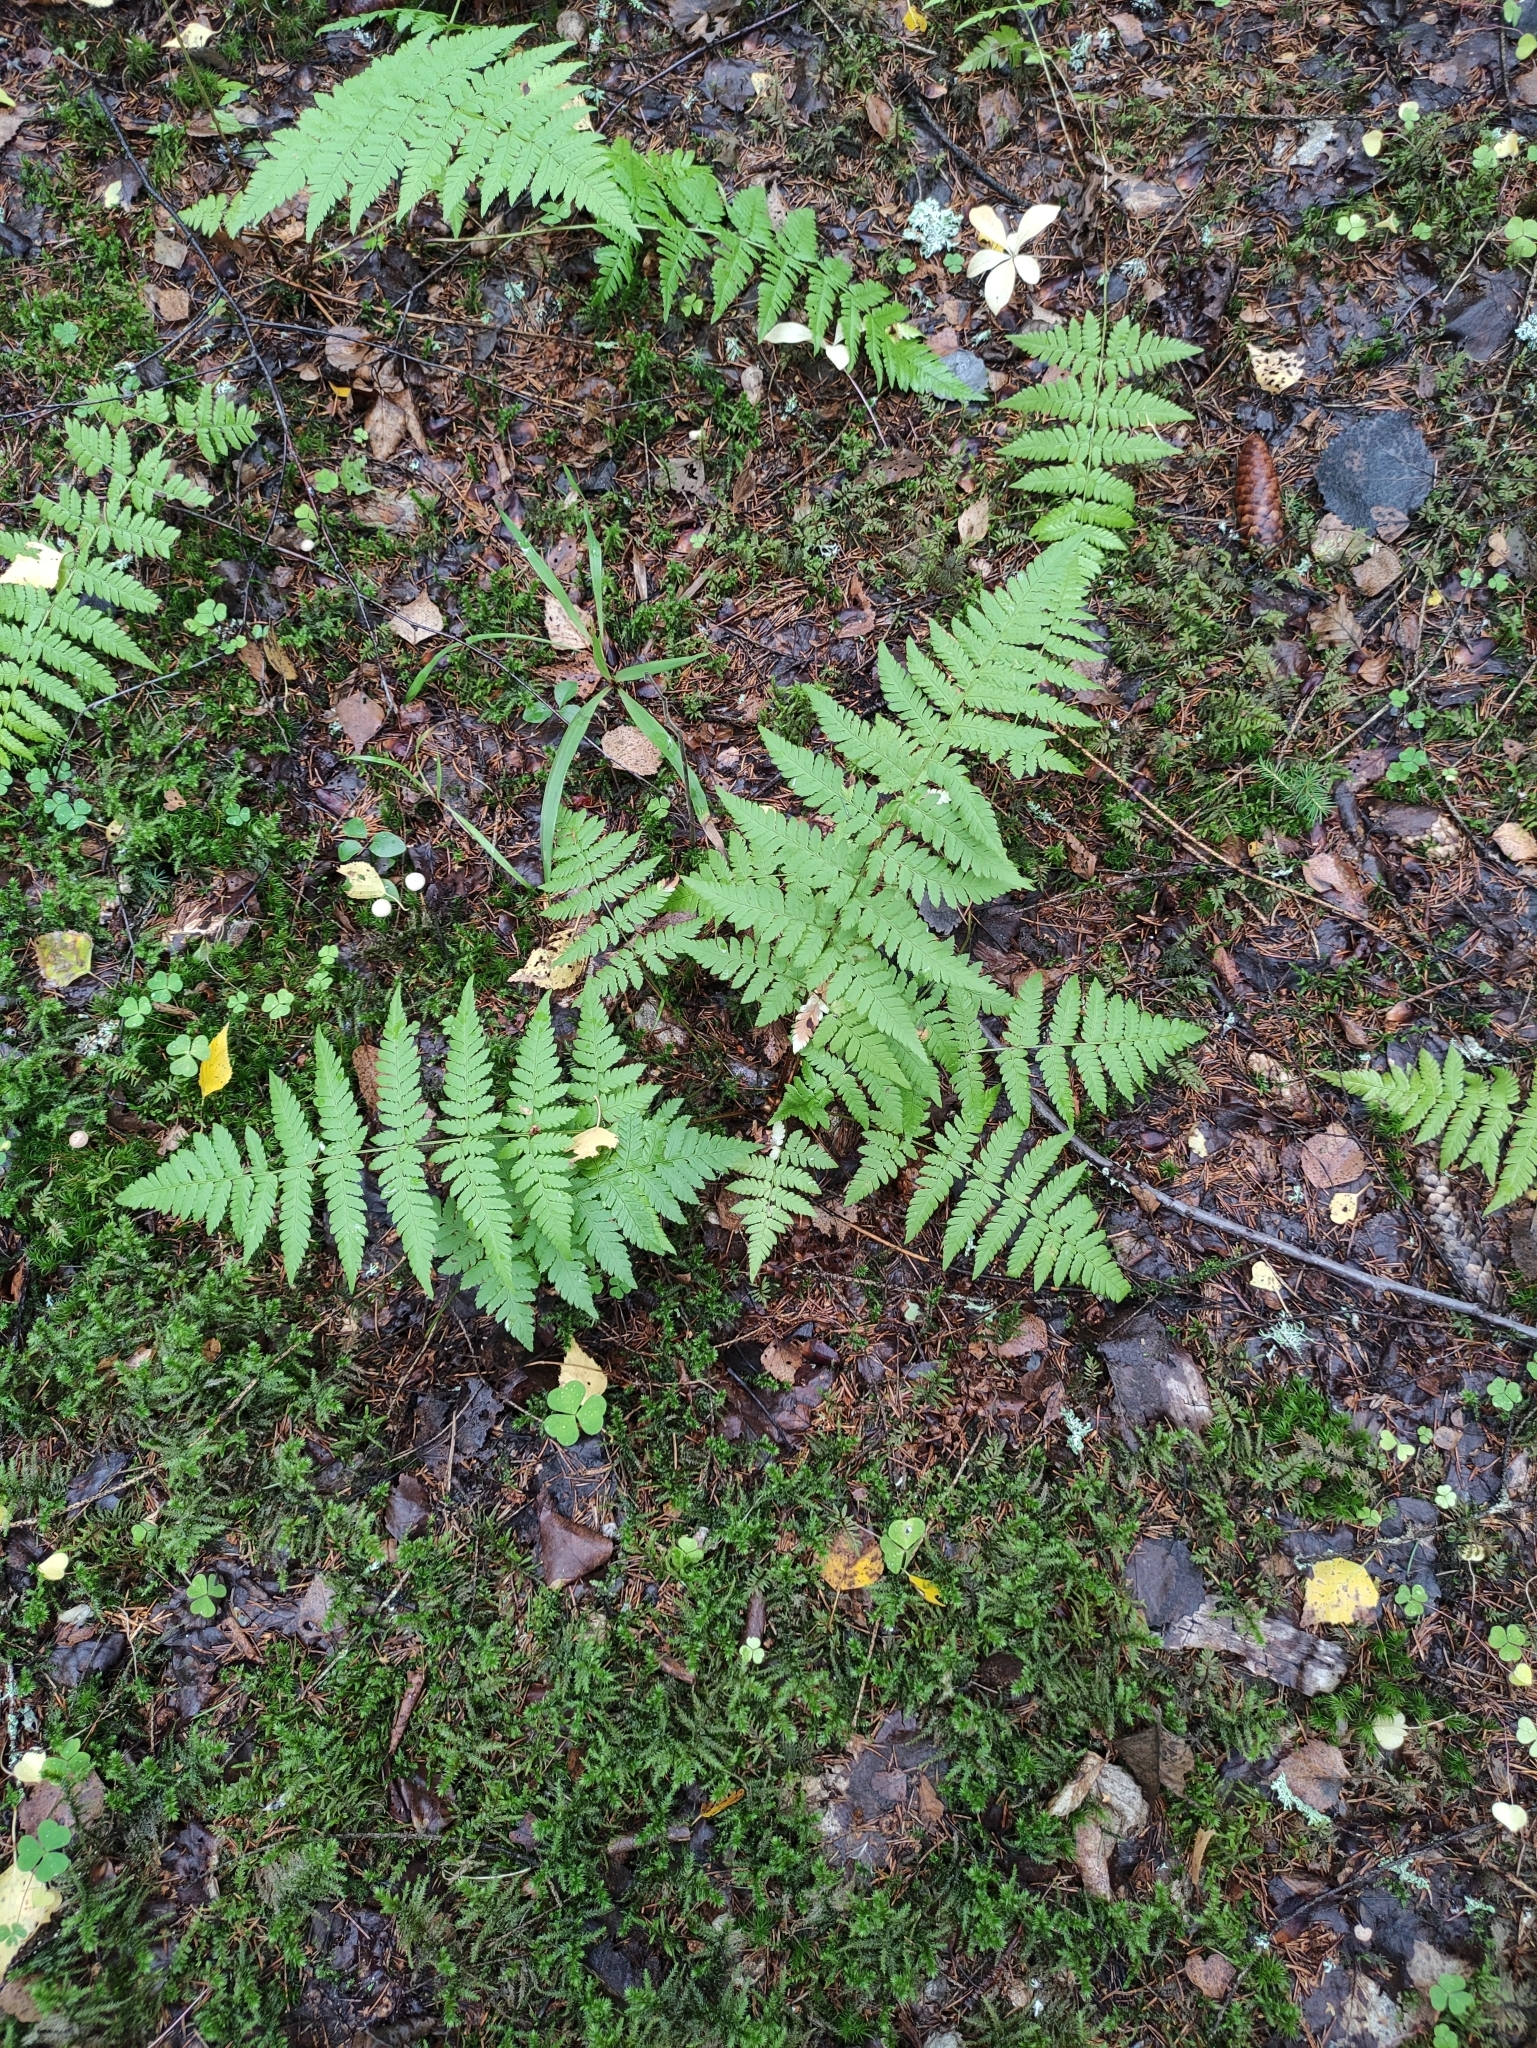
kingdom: Plantae
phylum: Tracheophyta
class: Polypodiopsida
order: Polypodiales
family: Dryopteridaceae
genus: Dryopteris
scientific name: Dryopteris carthusiana
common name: Narrow buckler-fern
